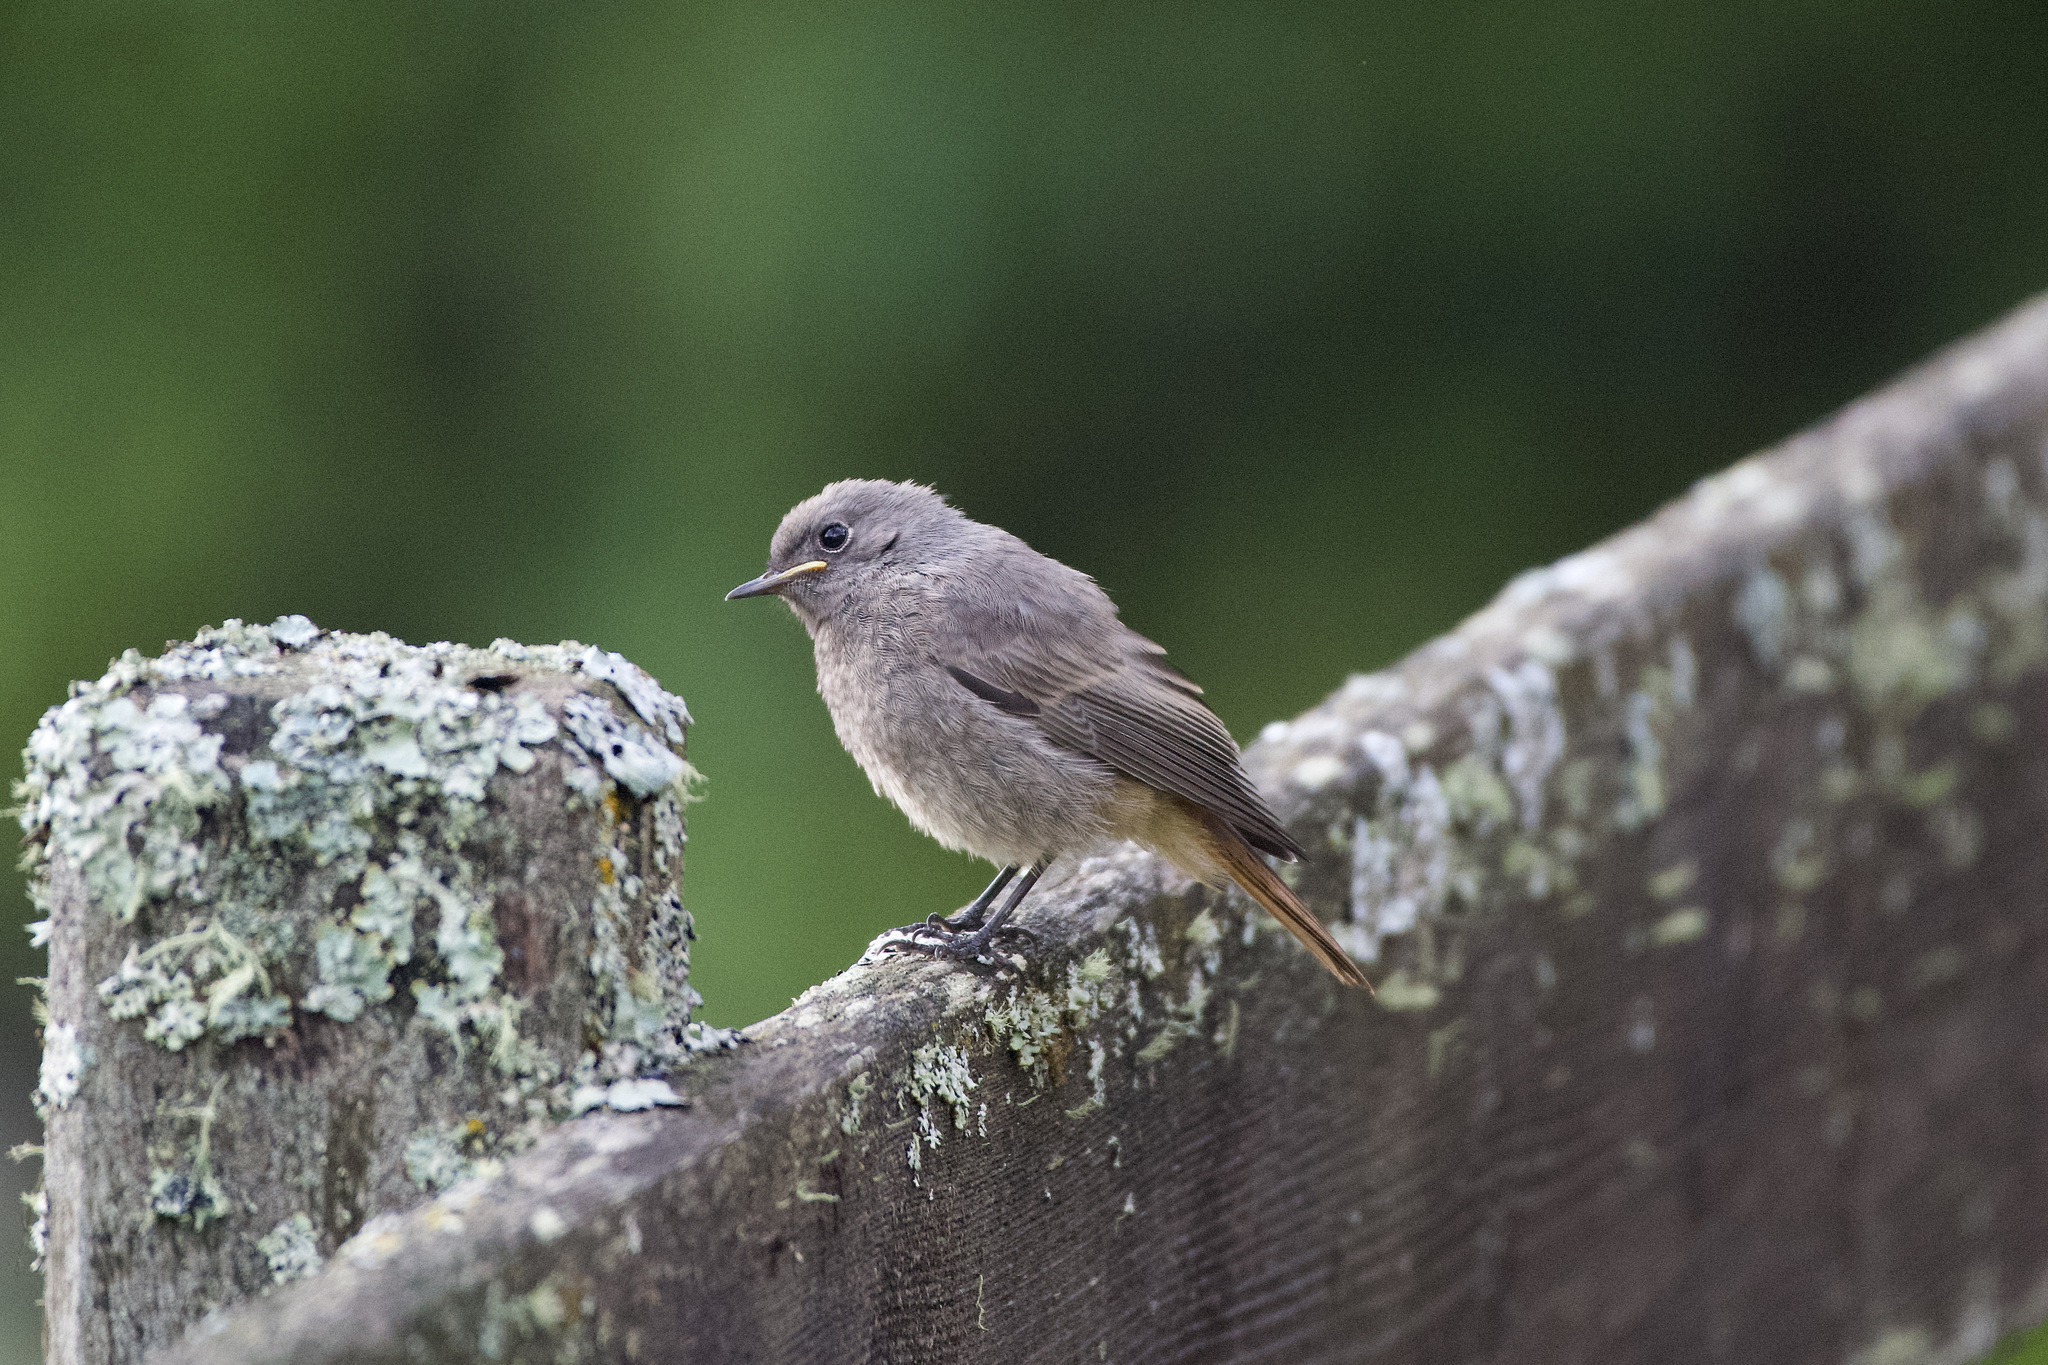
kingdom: Animalia
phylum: Chordata
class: Aves
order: Passeriformes
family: Muscicapidae
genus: Phoenicurus
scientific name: Phoenicurus ochruros
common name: Black redstart
